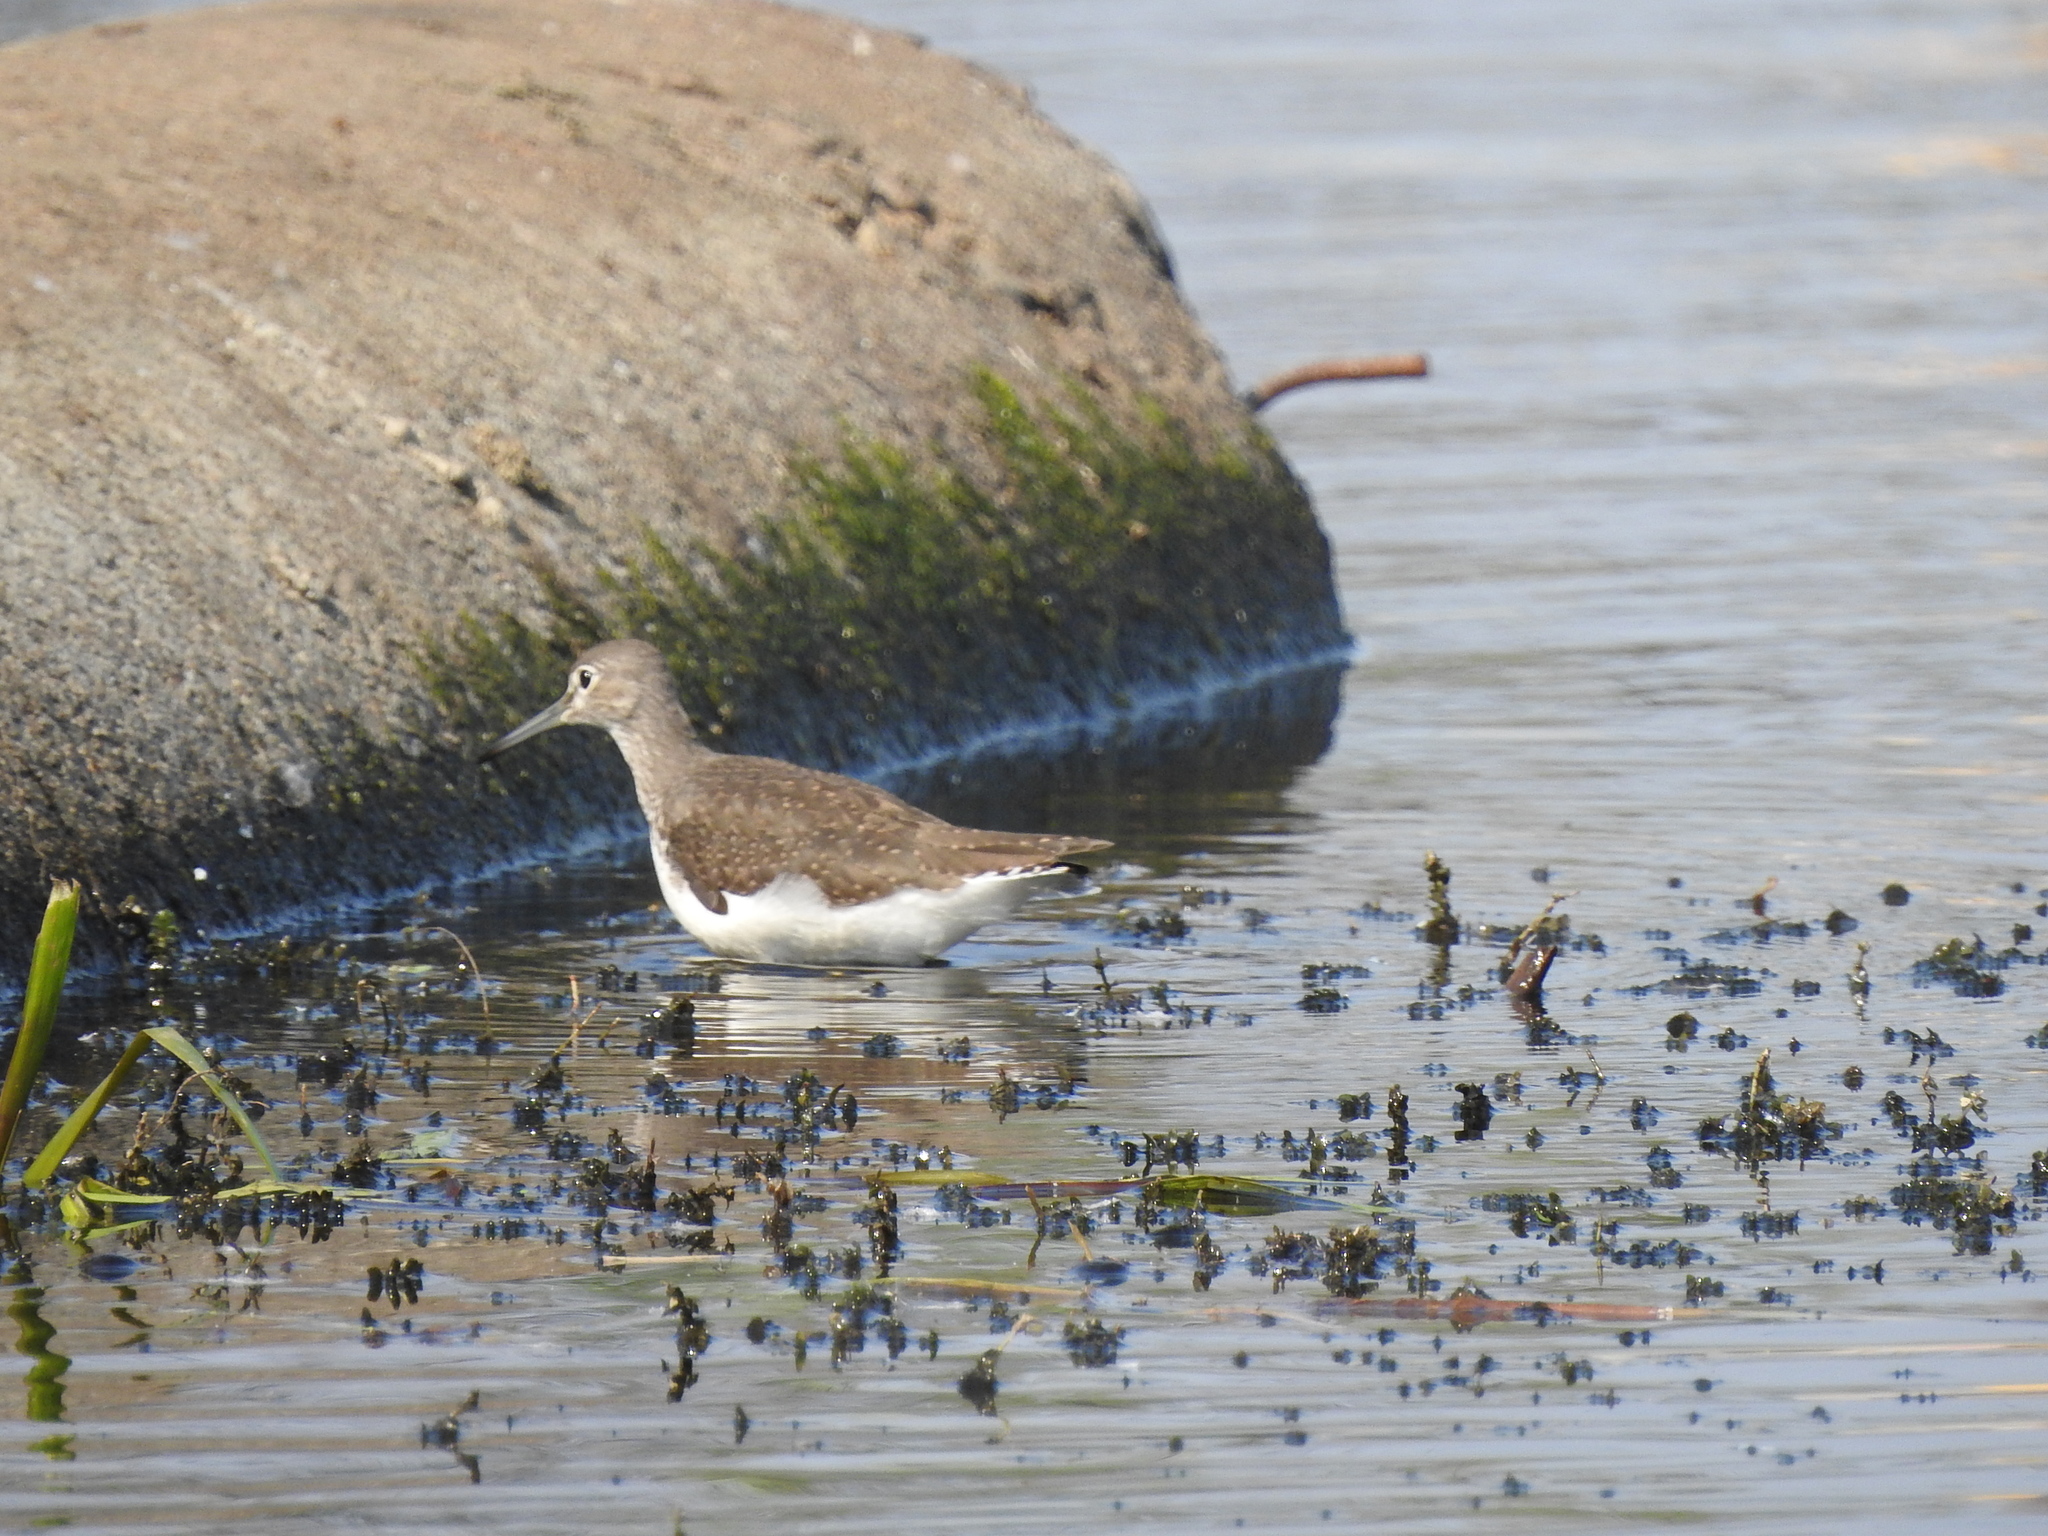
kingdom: Animalia
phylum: Chordata
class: Aves
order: Charadriiformes
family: Scolopacidae
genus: Tringa
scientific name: Tringa ochropus
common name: Green sandpiper
